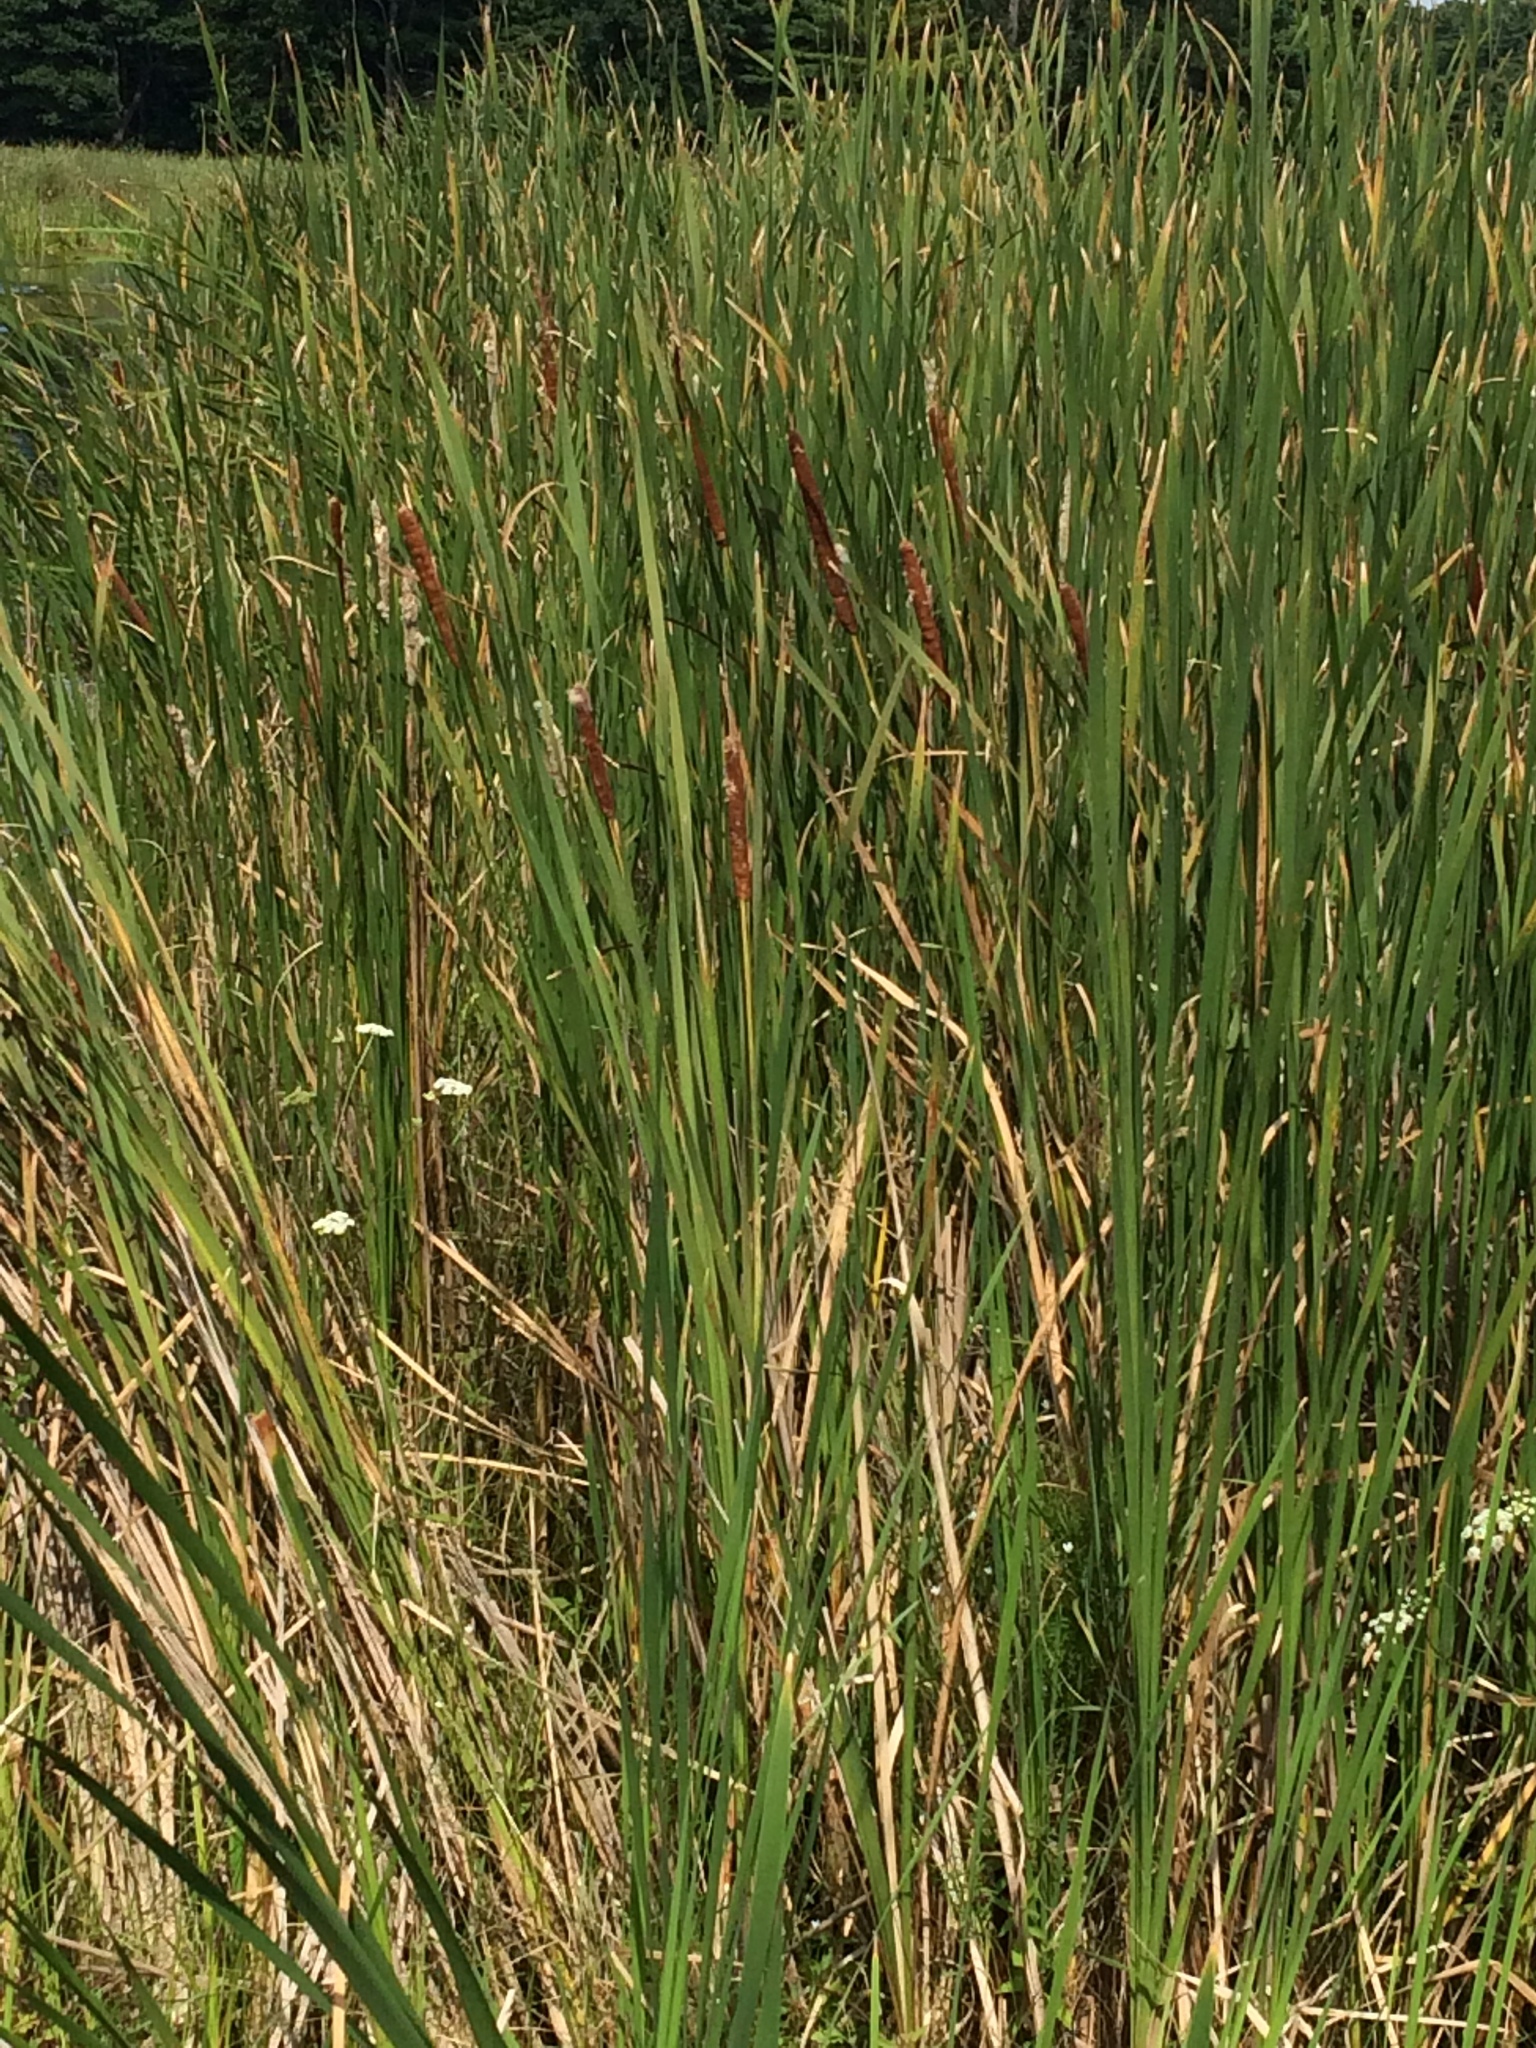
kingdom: Plantae
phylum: Tracheophyta
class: Liliopsida
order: Poales
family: Typhaceae
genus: Typha
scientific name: Typha angustifolia
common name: Lesser bulrush
